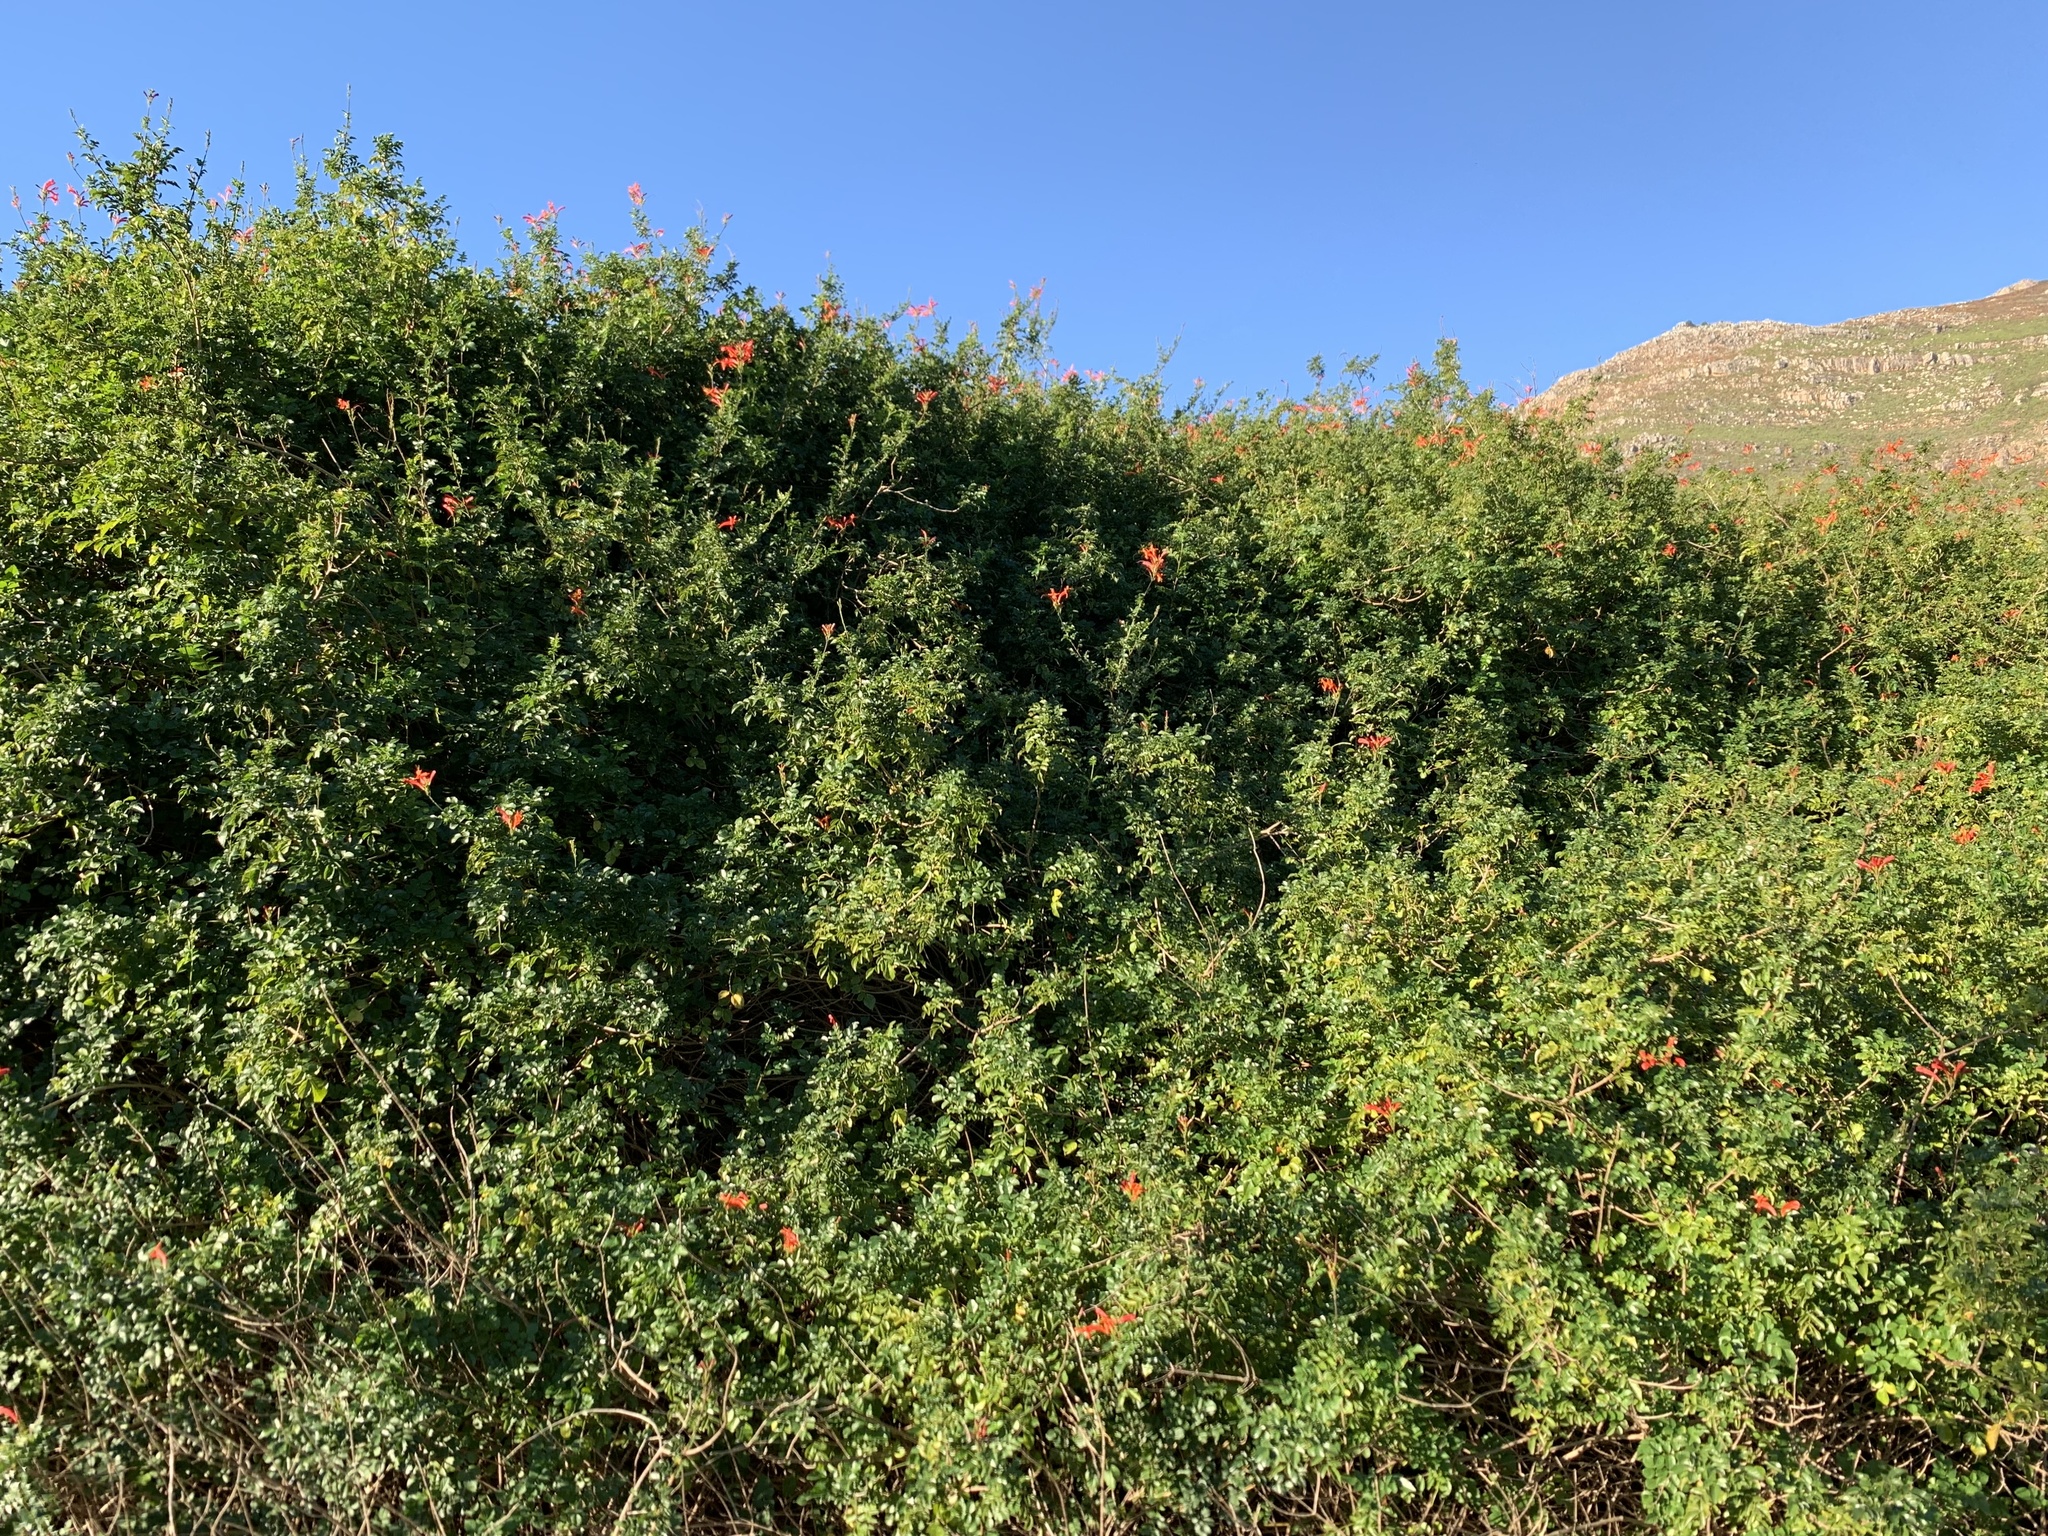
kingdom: Plantae
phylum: Tracheophyta
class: Magnoliopsida
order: Lamiales
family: Bignoniaceae
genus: Tecomaria
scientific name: Tecomaria capensis
